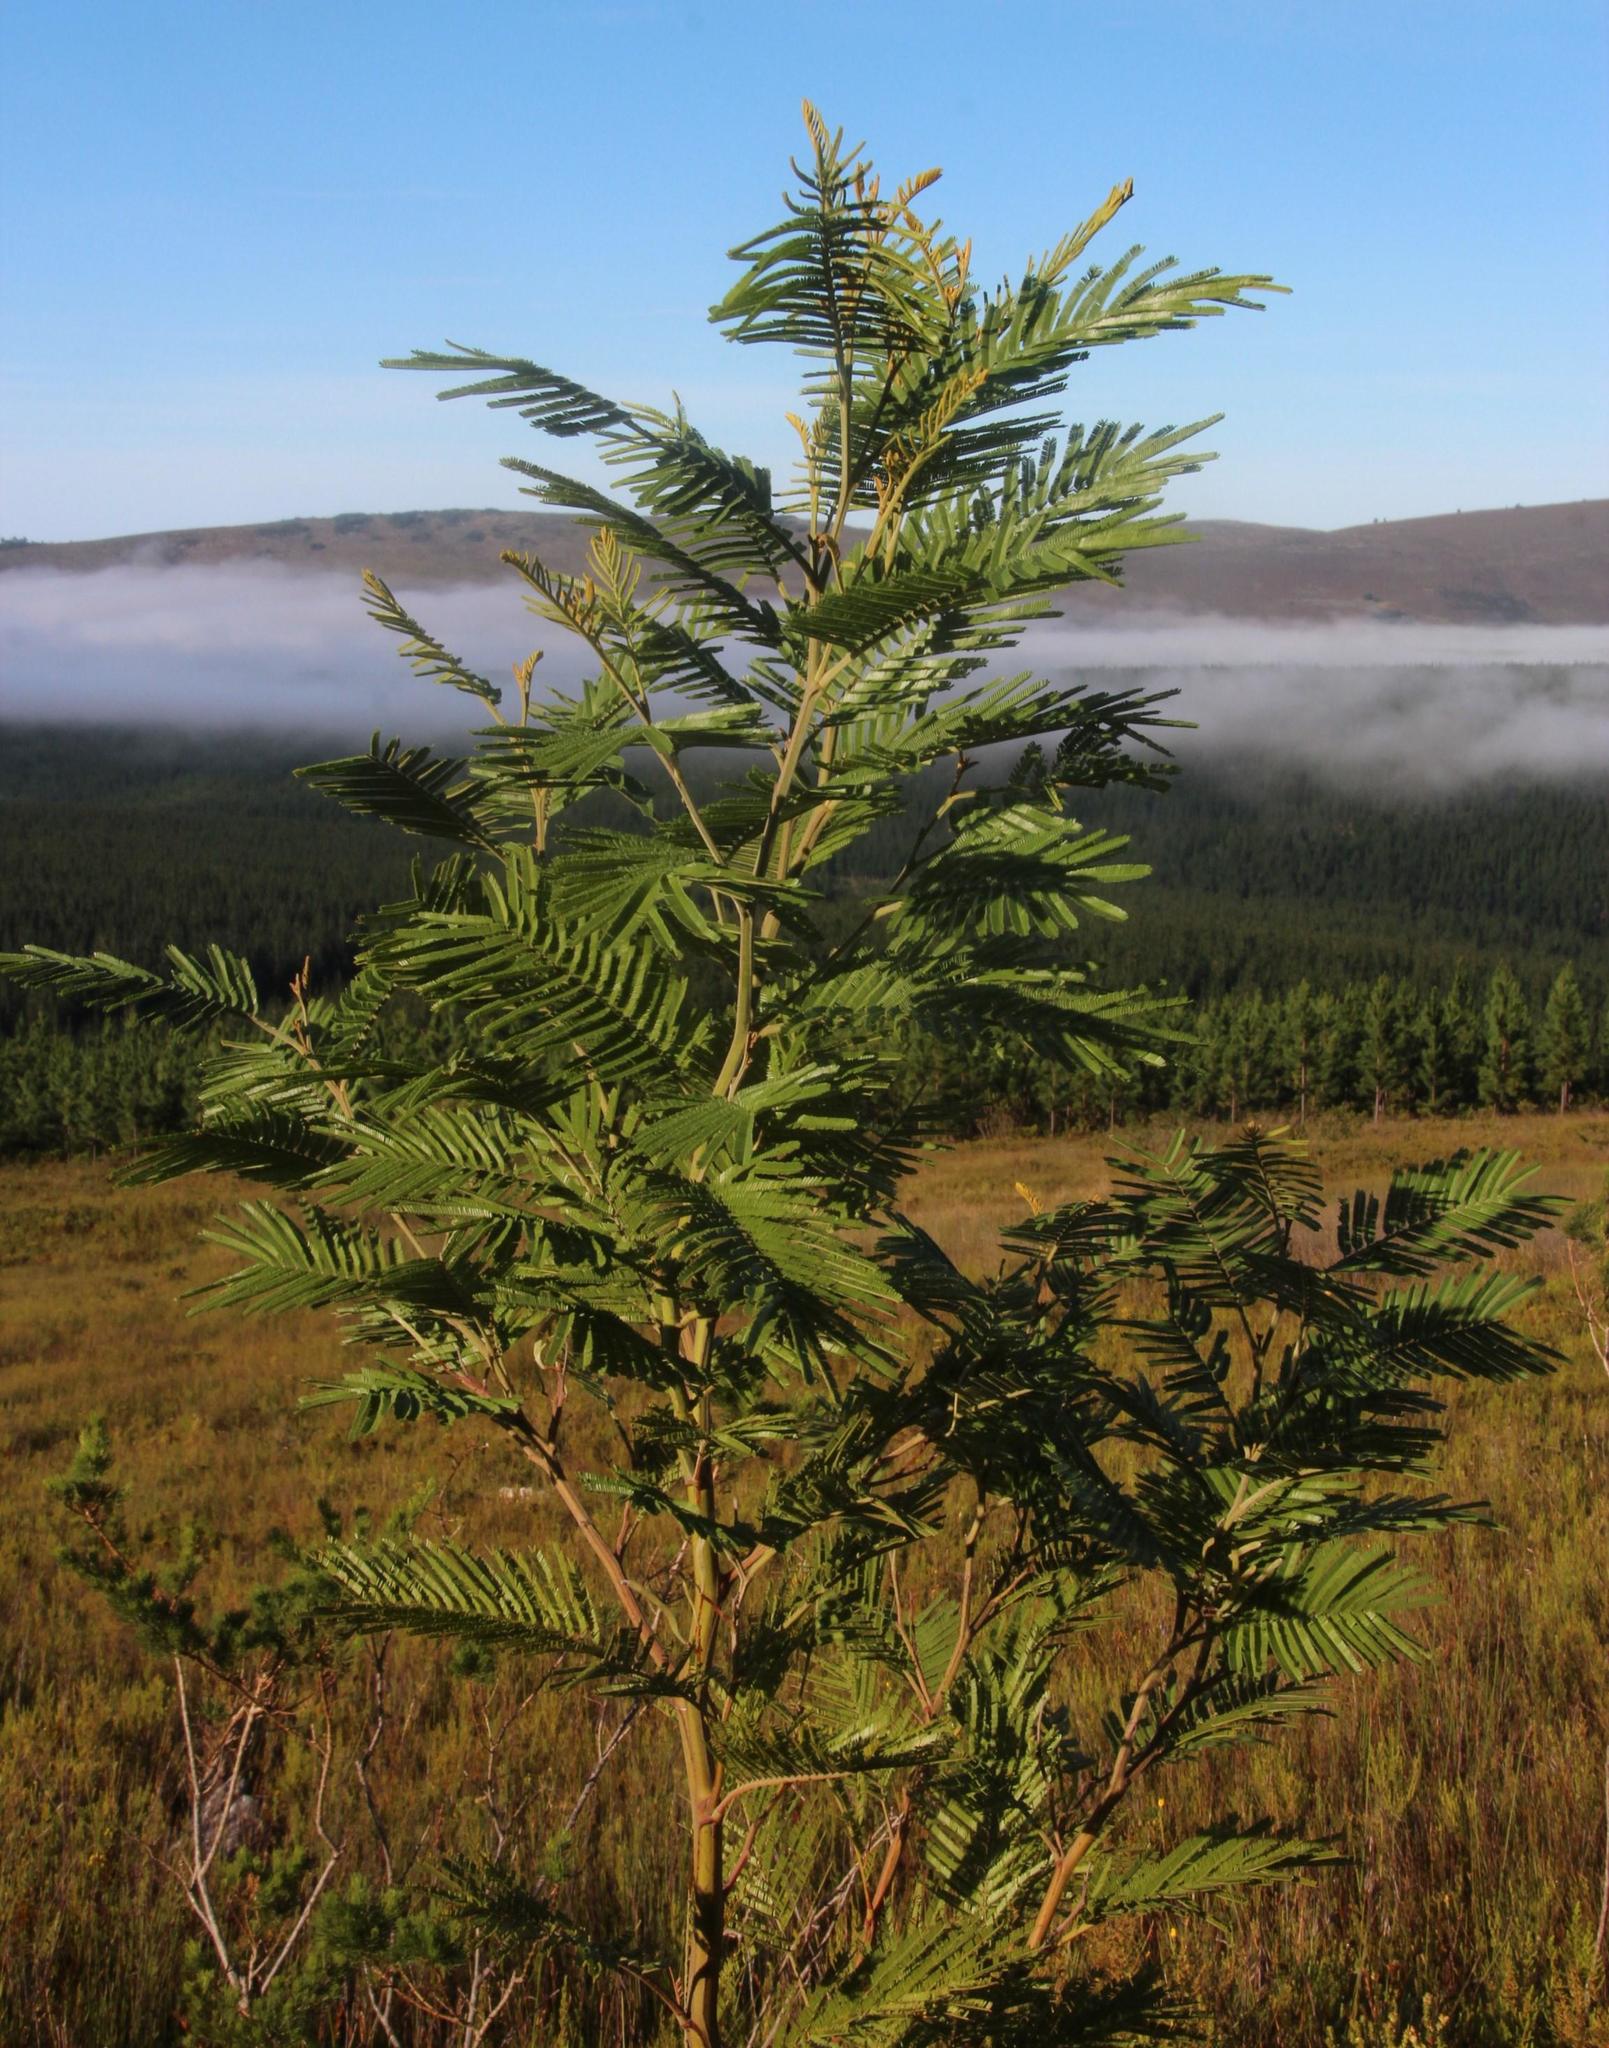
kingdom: Plantae
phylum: Tracheophyta
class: Magnoliopsida
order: Fabales
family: Fabaceae
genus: Acacia
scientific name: Acacia mearnsii
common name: Black wattle
